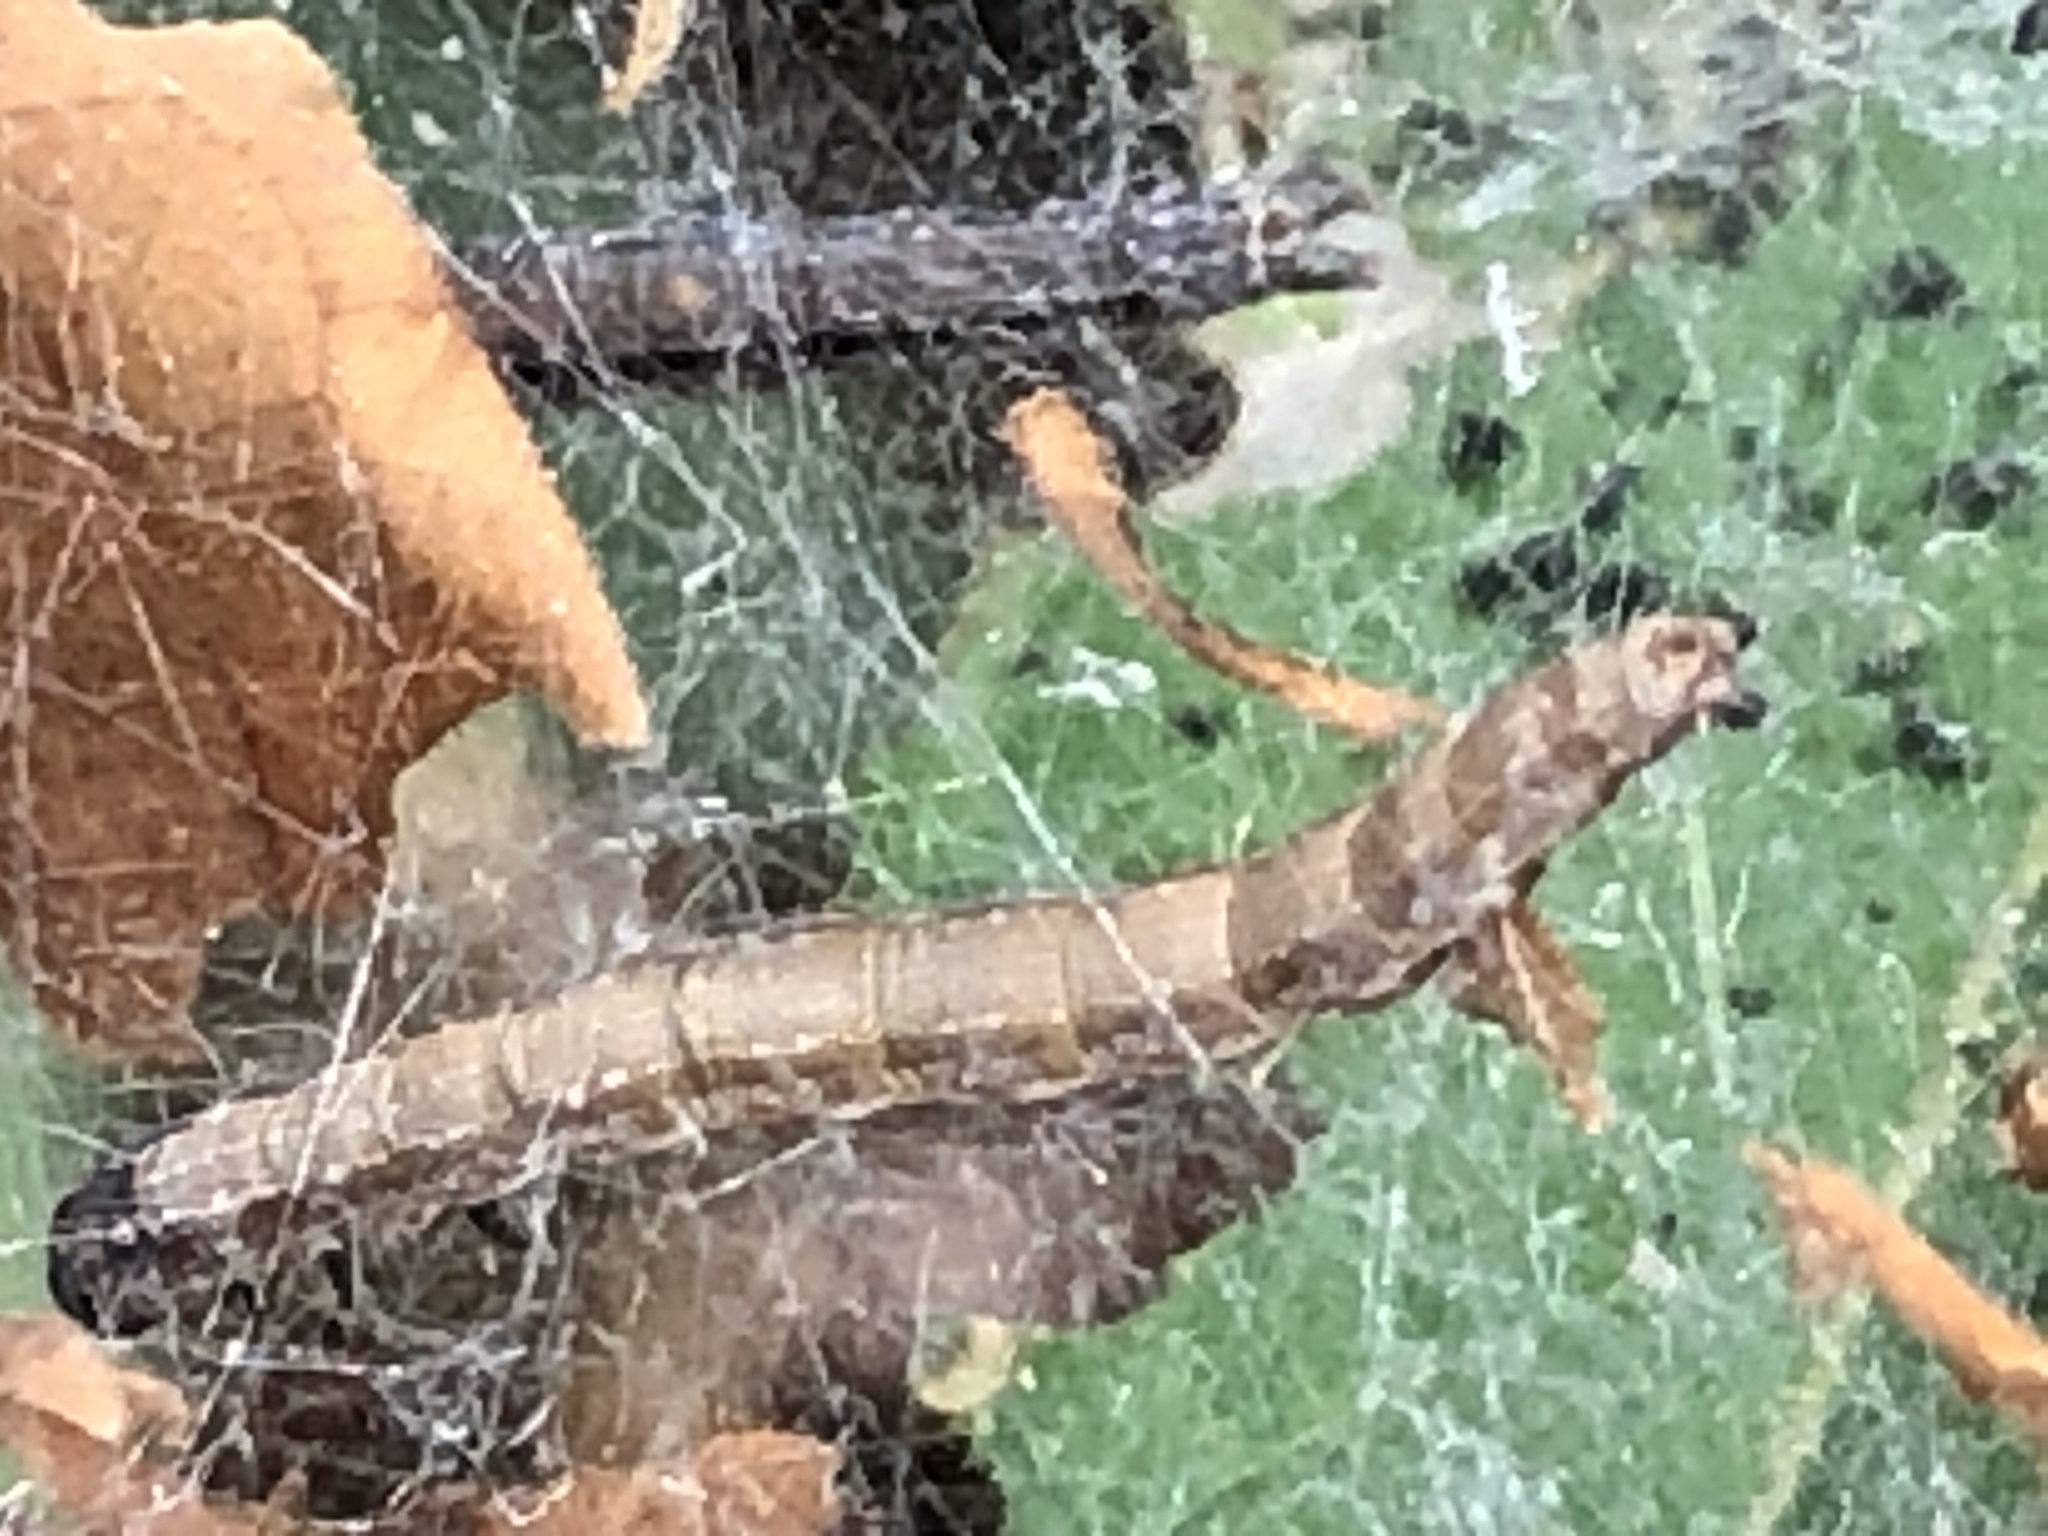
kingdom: Animalia
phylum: Arthropoda
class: Insecta
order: Lepidoptera
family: Attevidae
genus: Atteva
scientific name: Atteva punctella
